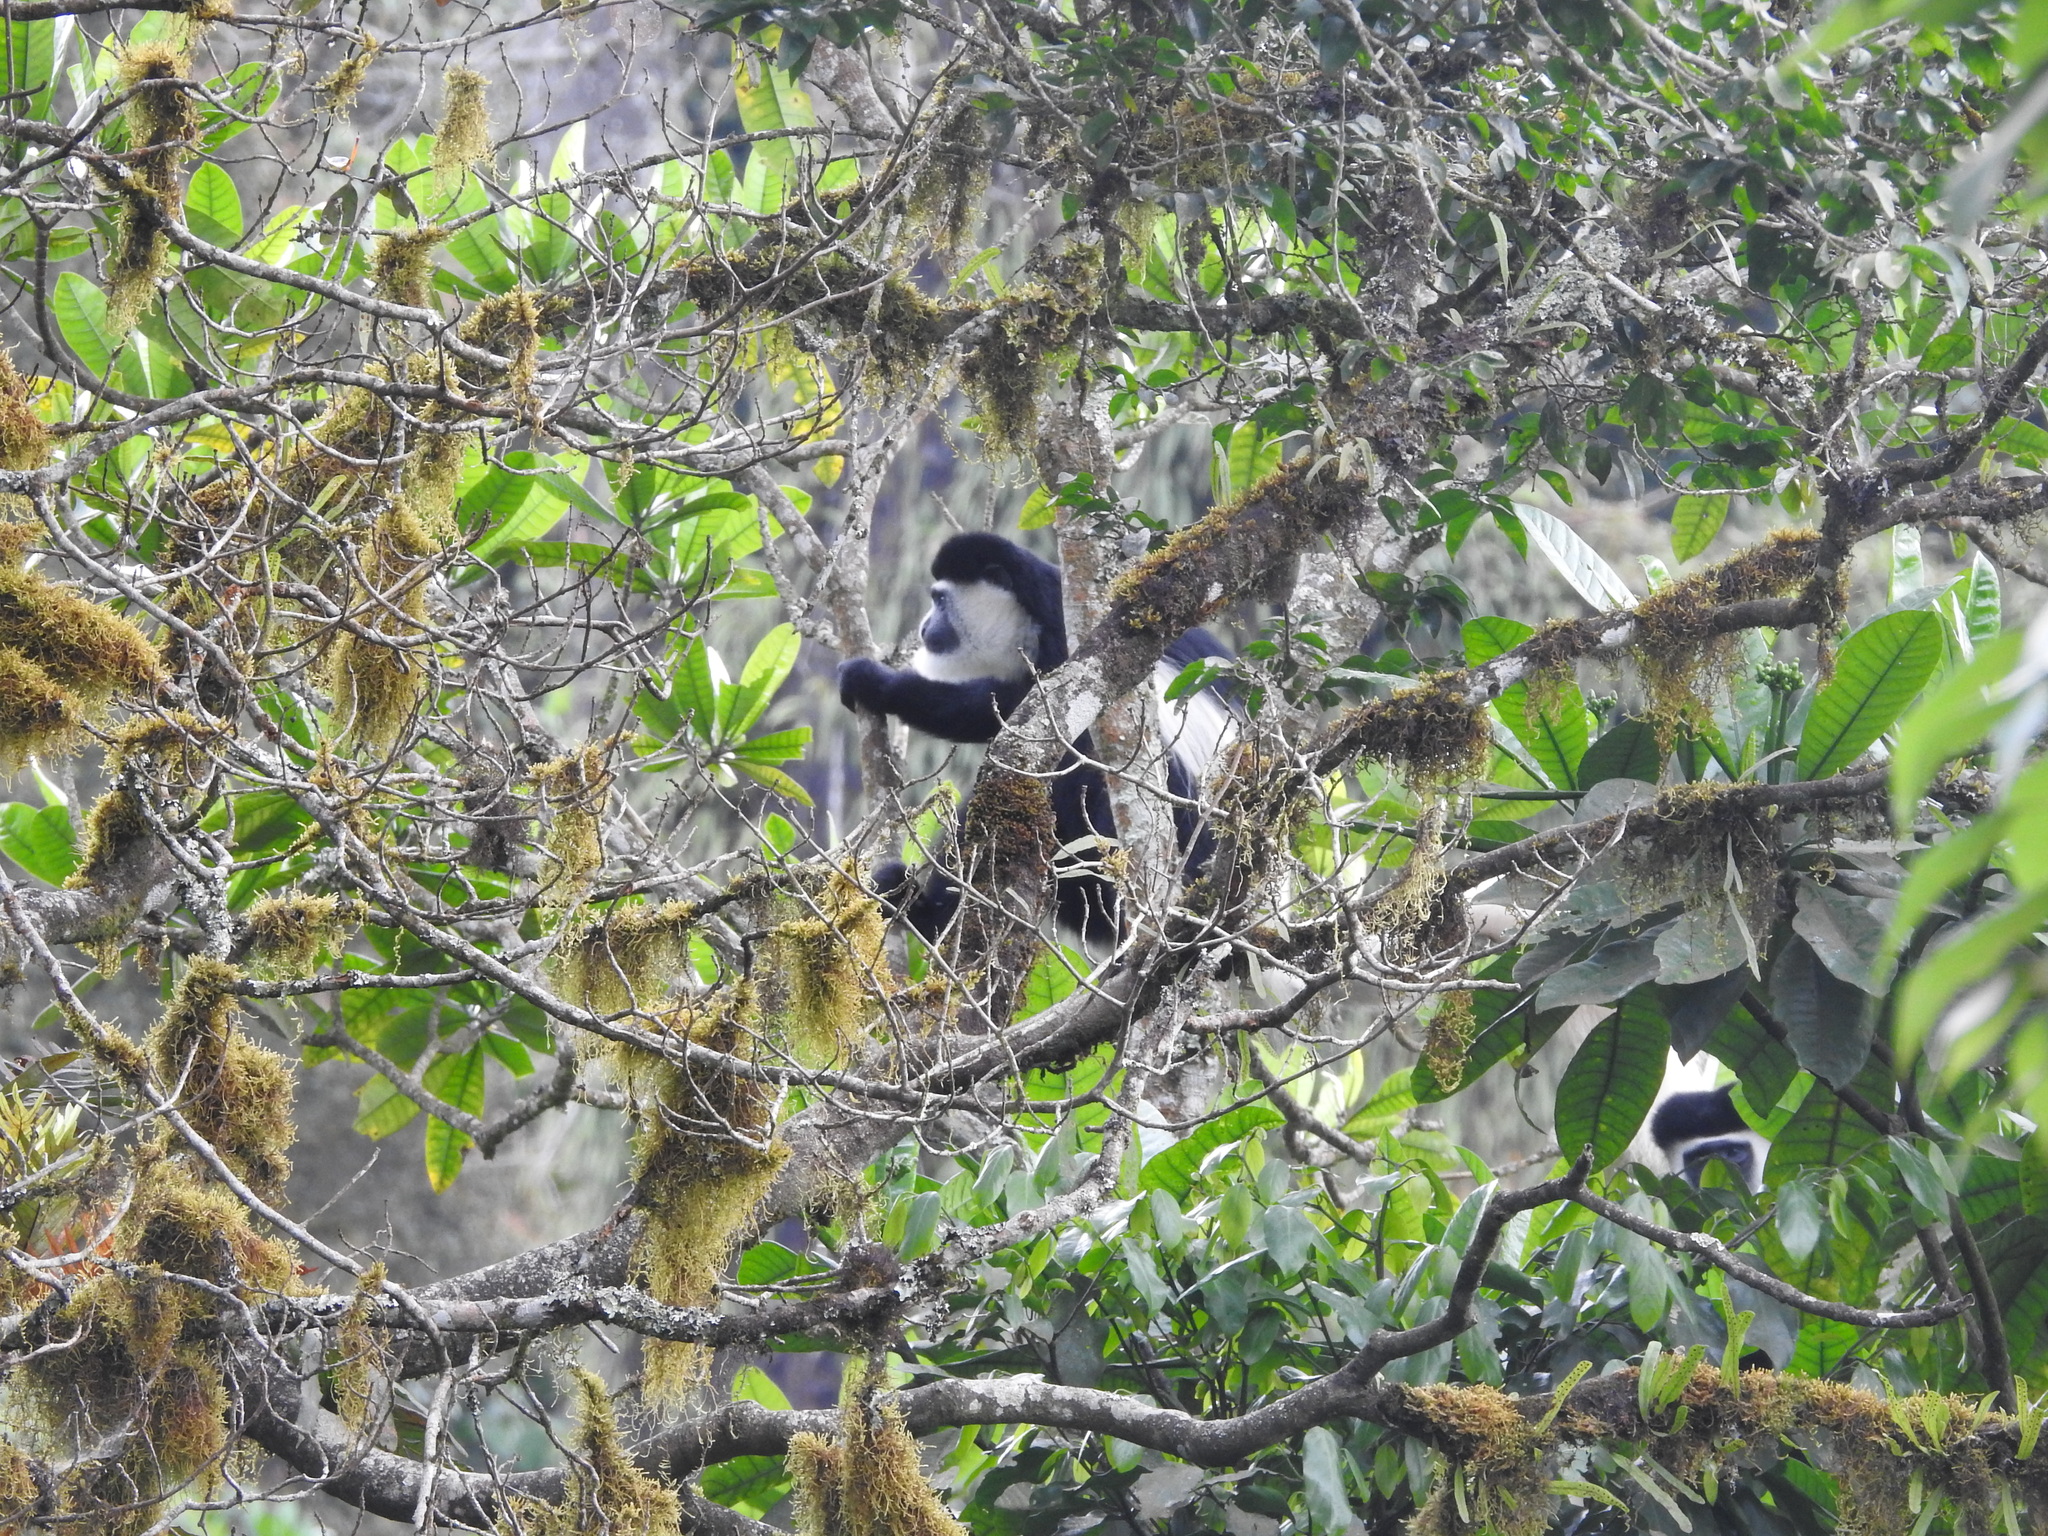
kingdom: Animalia
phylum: Chordata
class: Mammalia
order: Primates
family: Cercopithecidae
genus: Colobus
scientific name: Colobus guereza
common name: Mantled guereza
